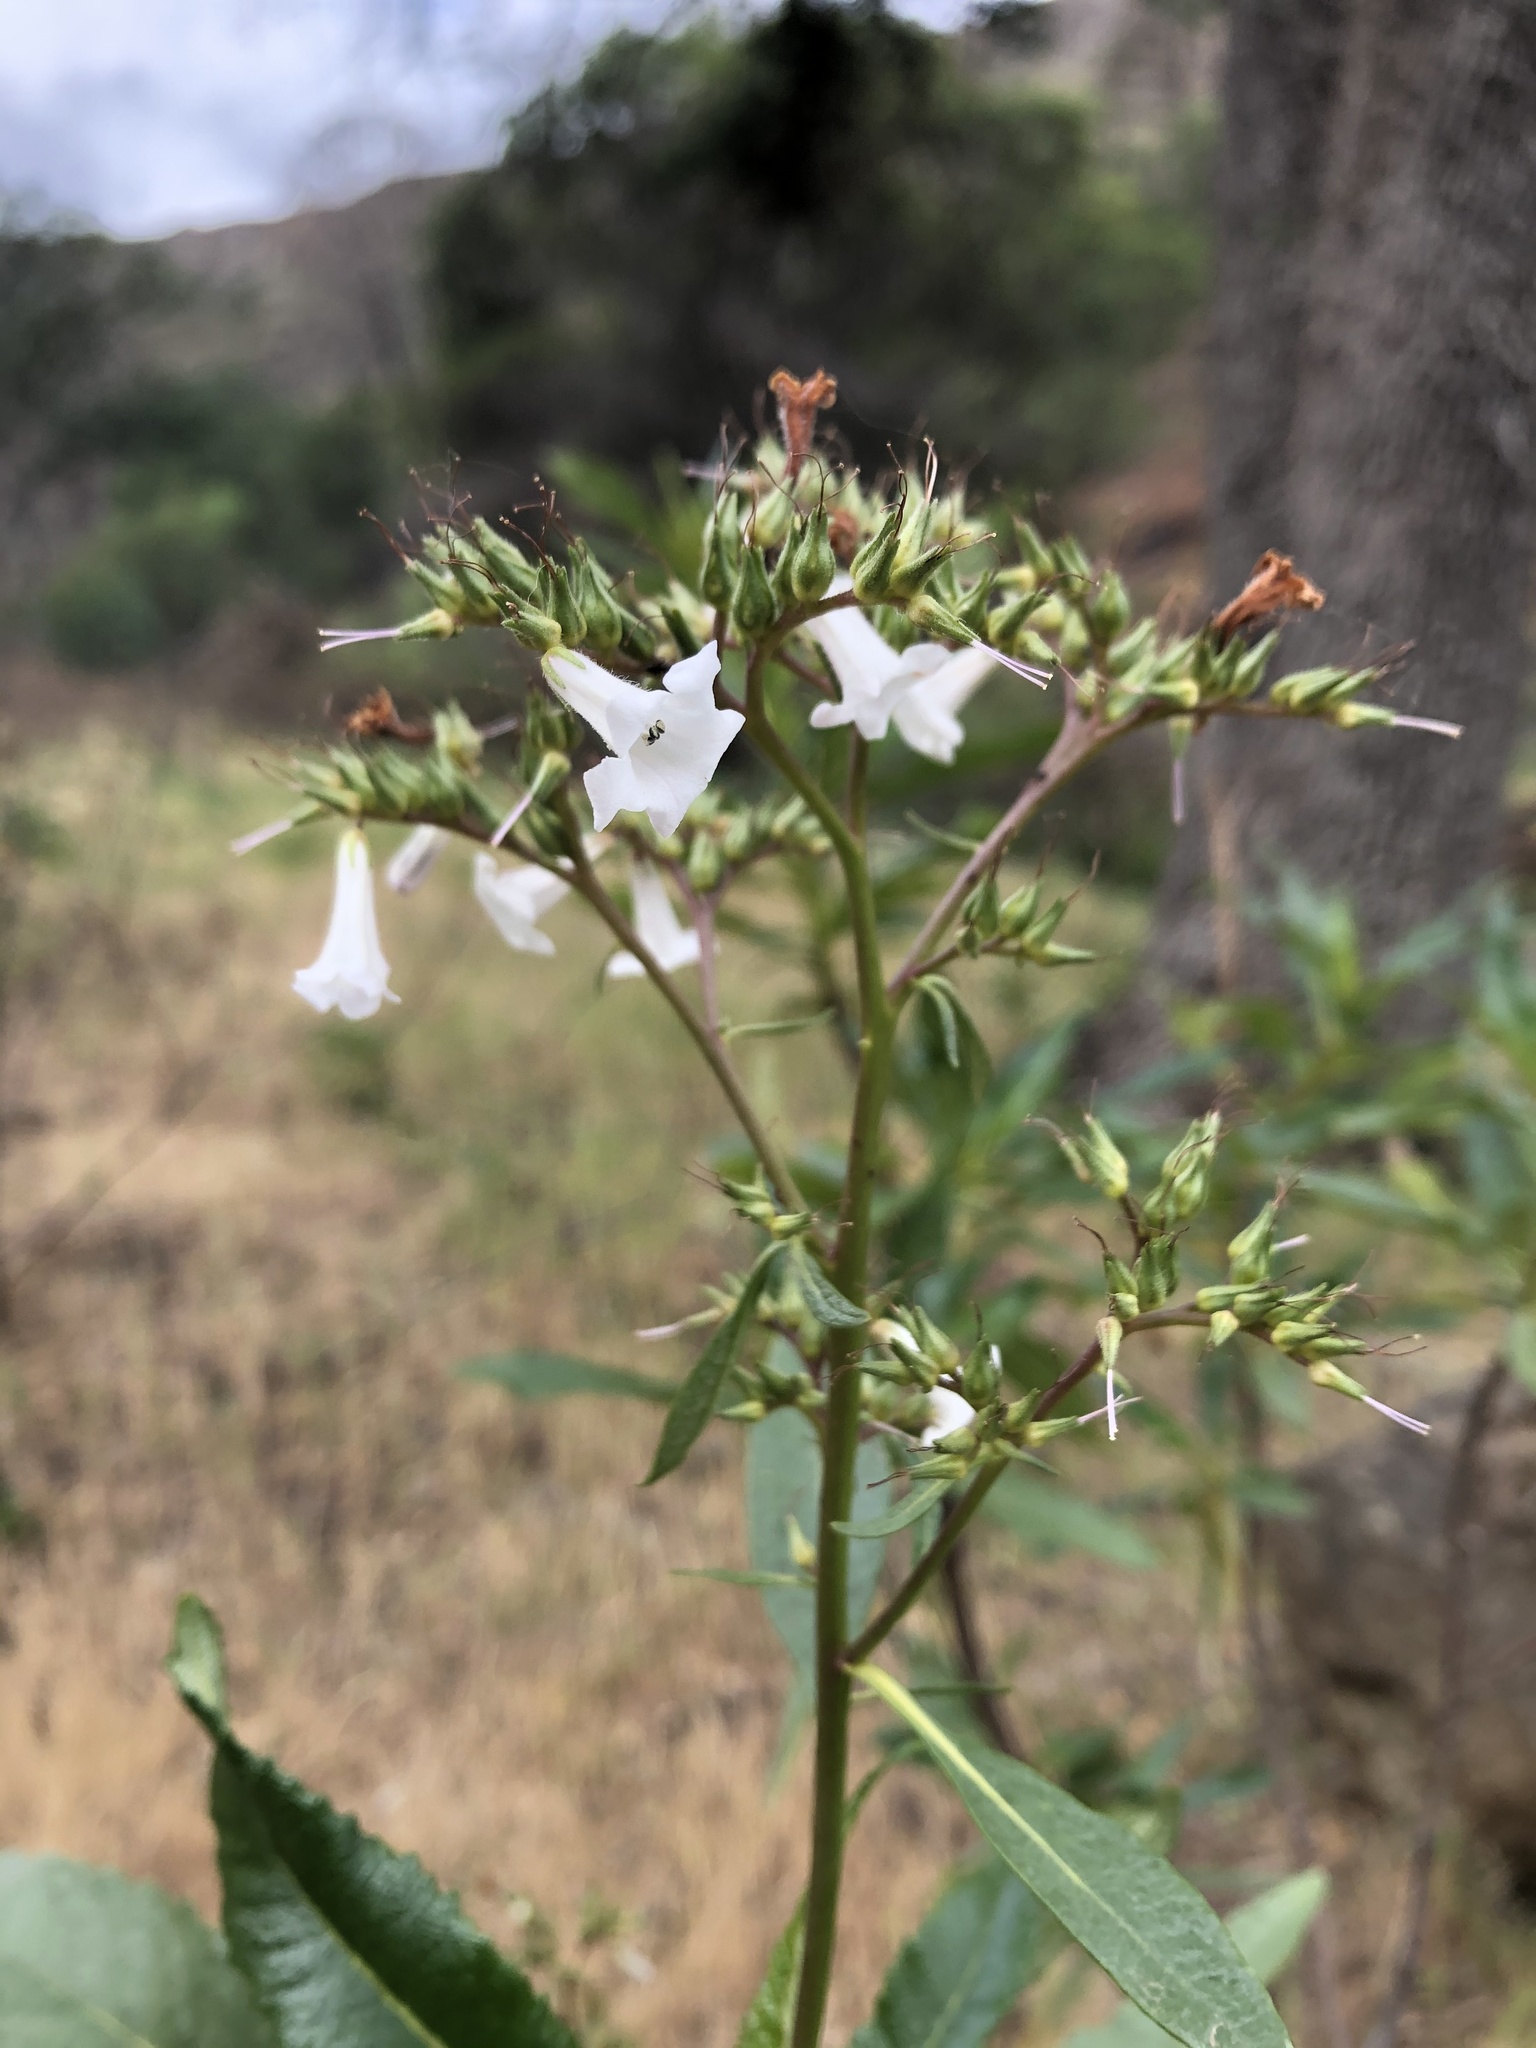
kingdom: Plantae
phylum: Tracheophyta
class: Magnoliopsida
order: Boraginales
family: Namaceae
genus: Eriodictyon
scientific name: Eriodictyon californicum
